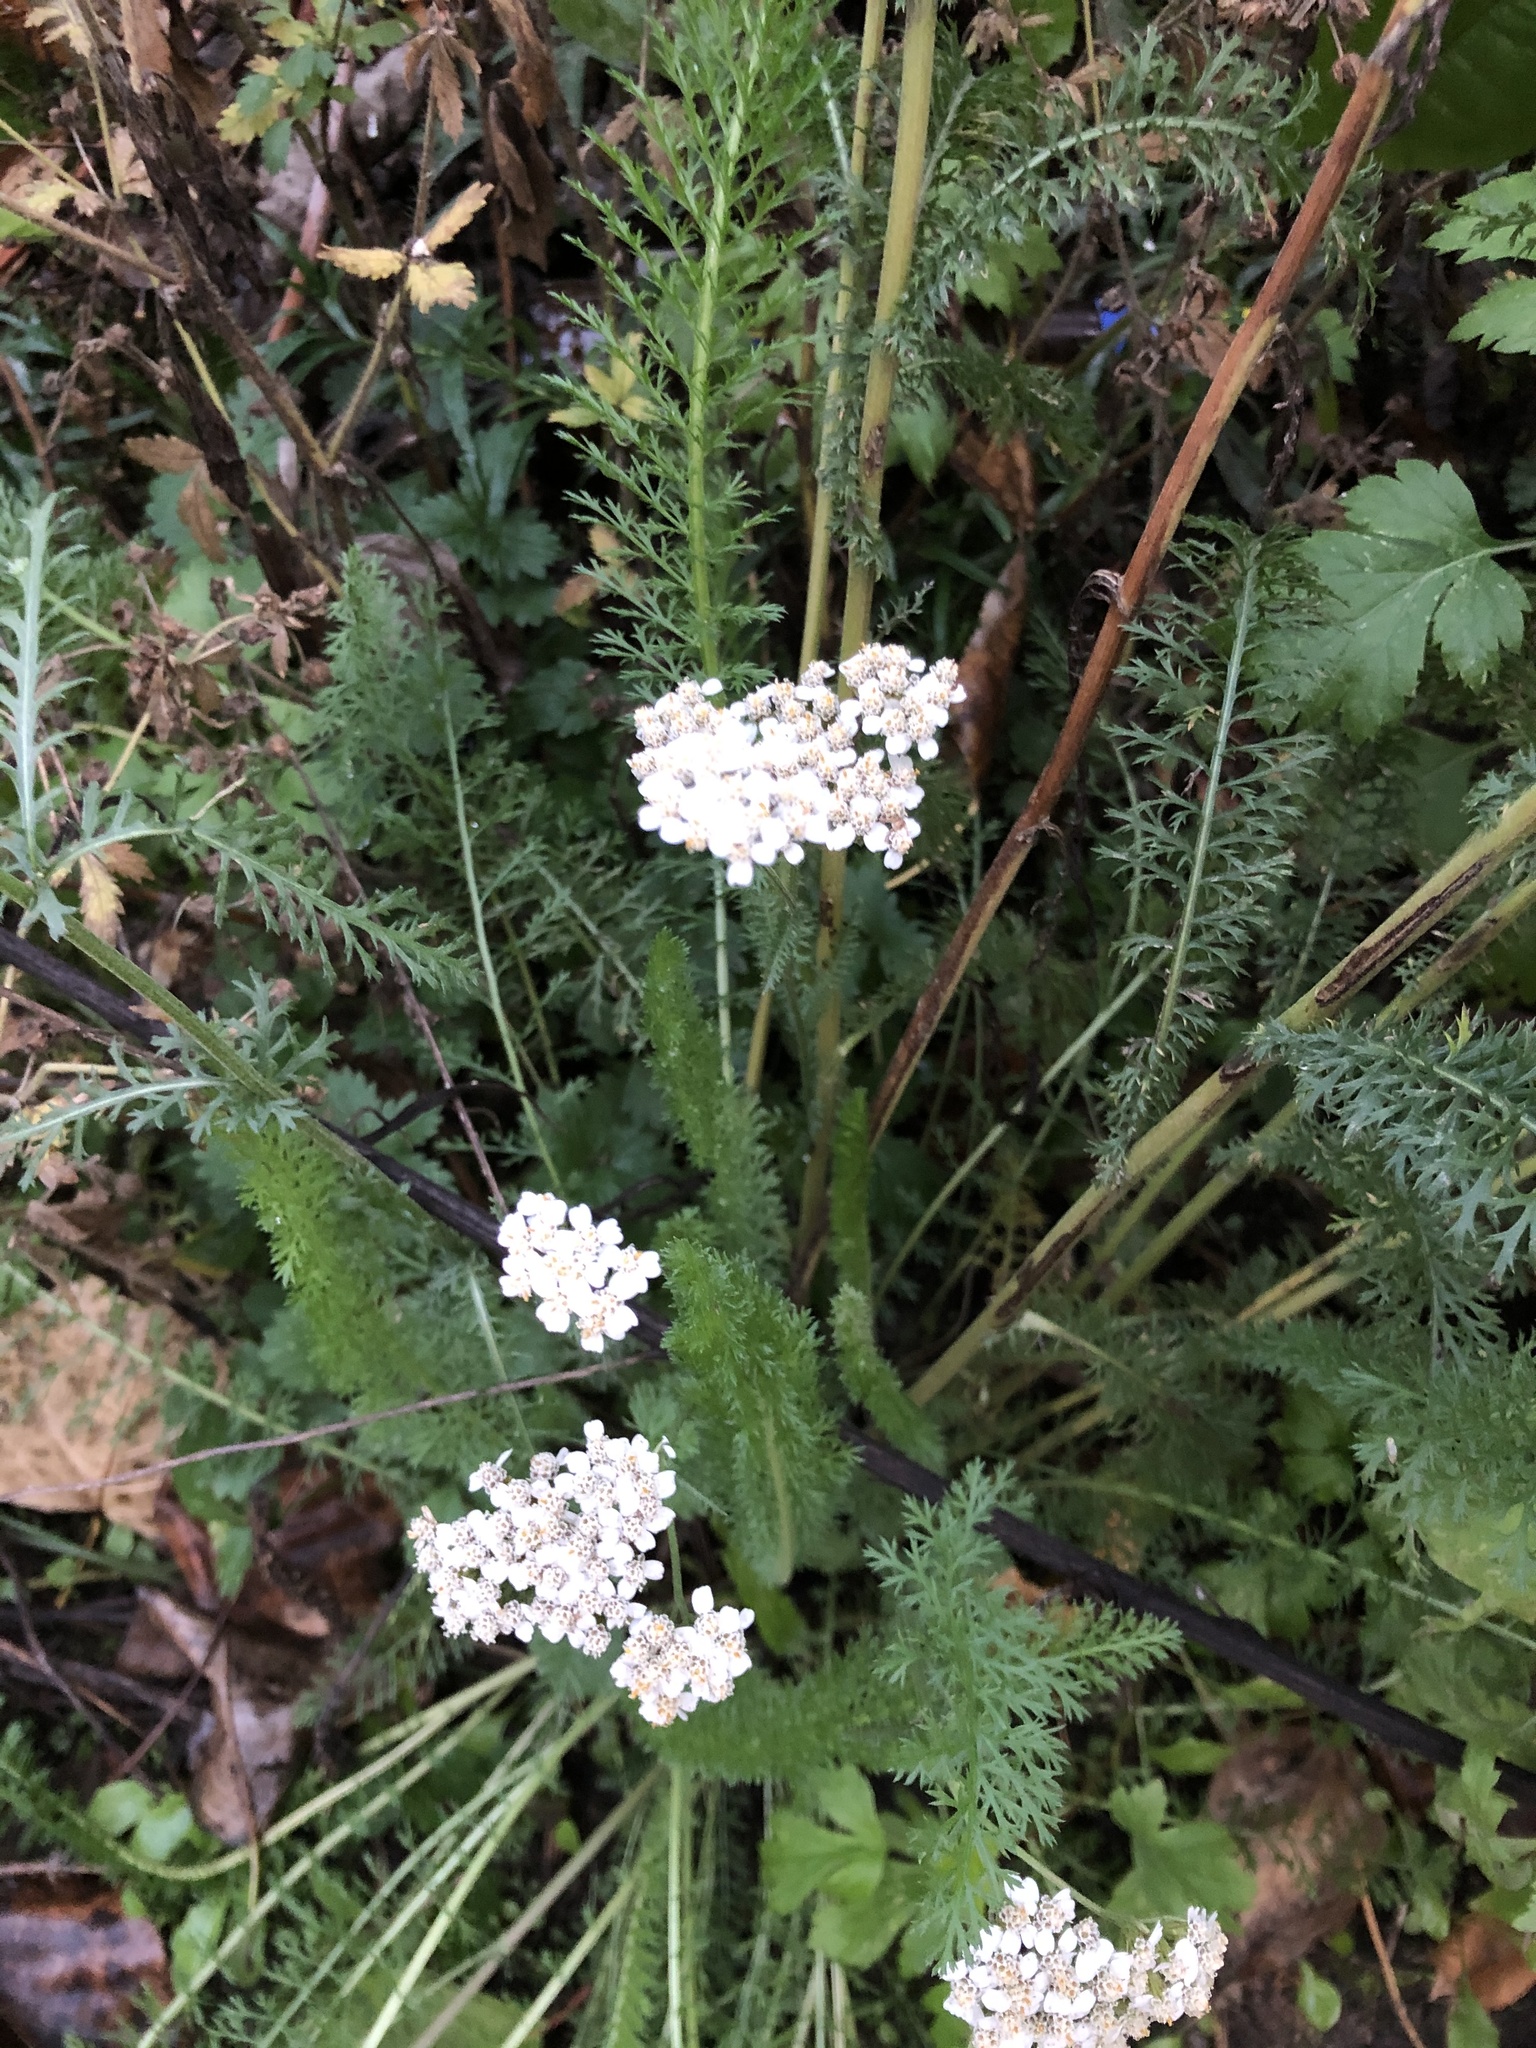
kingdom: Plantae
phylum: Tracheophyta
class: Magnoliopsida
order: Asterales
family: Asteraceae
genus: Achillea
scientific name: Achillea millefolium
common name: Yarrow
